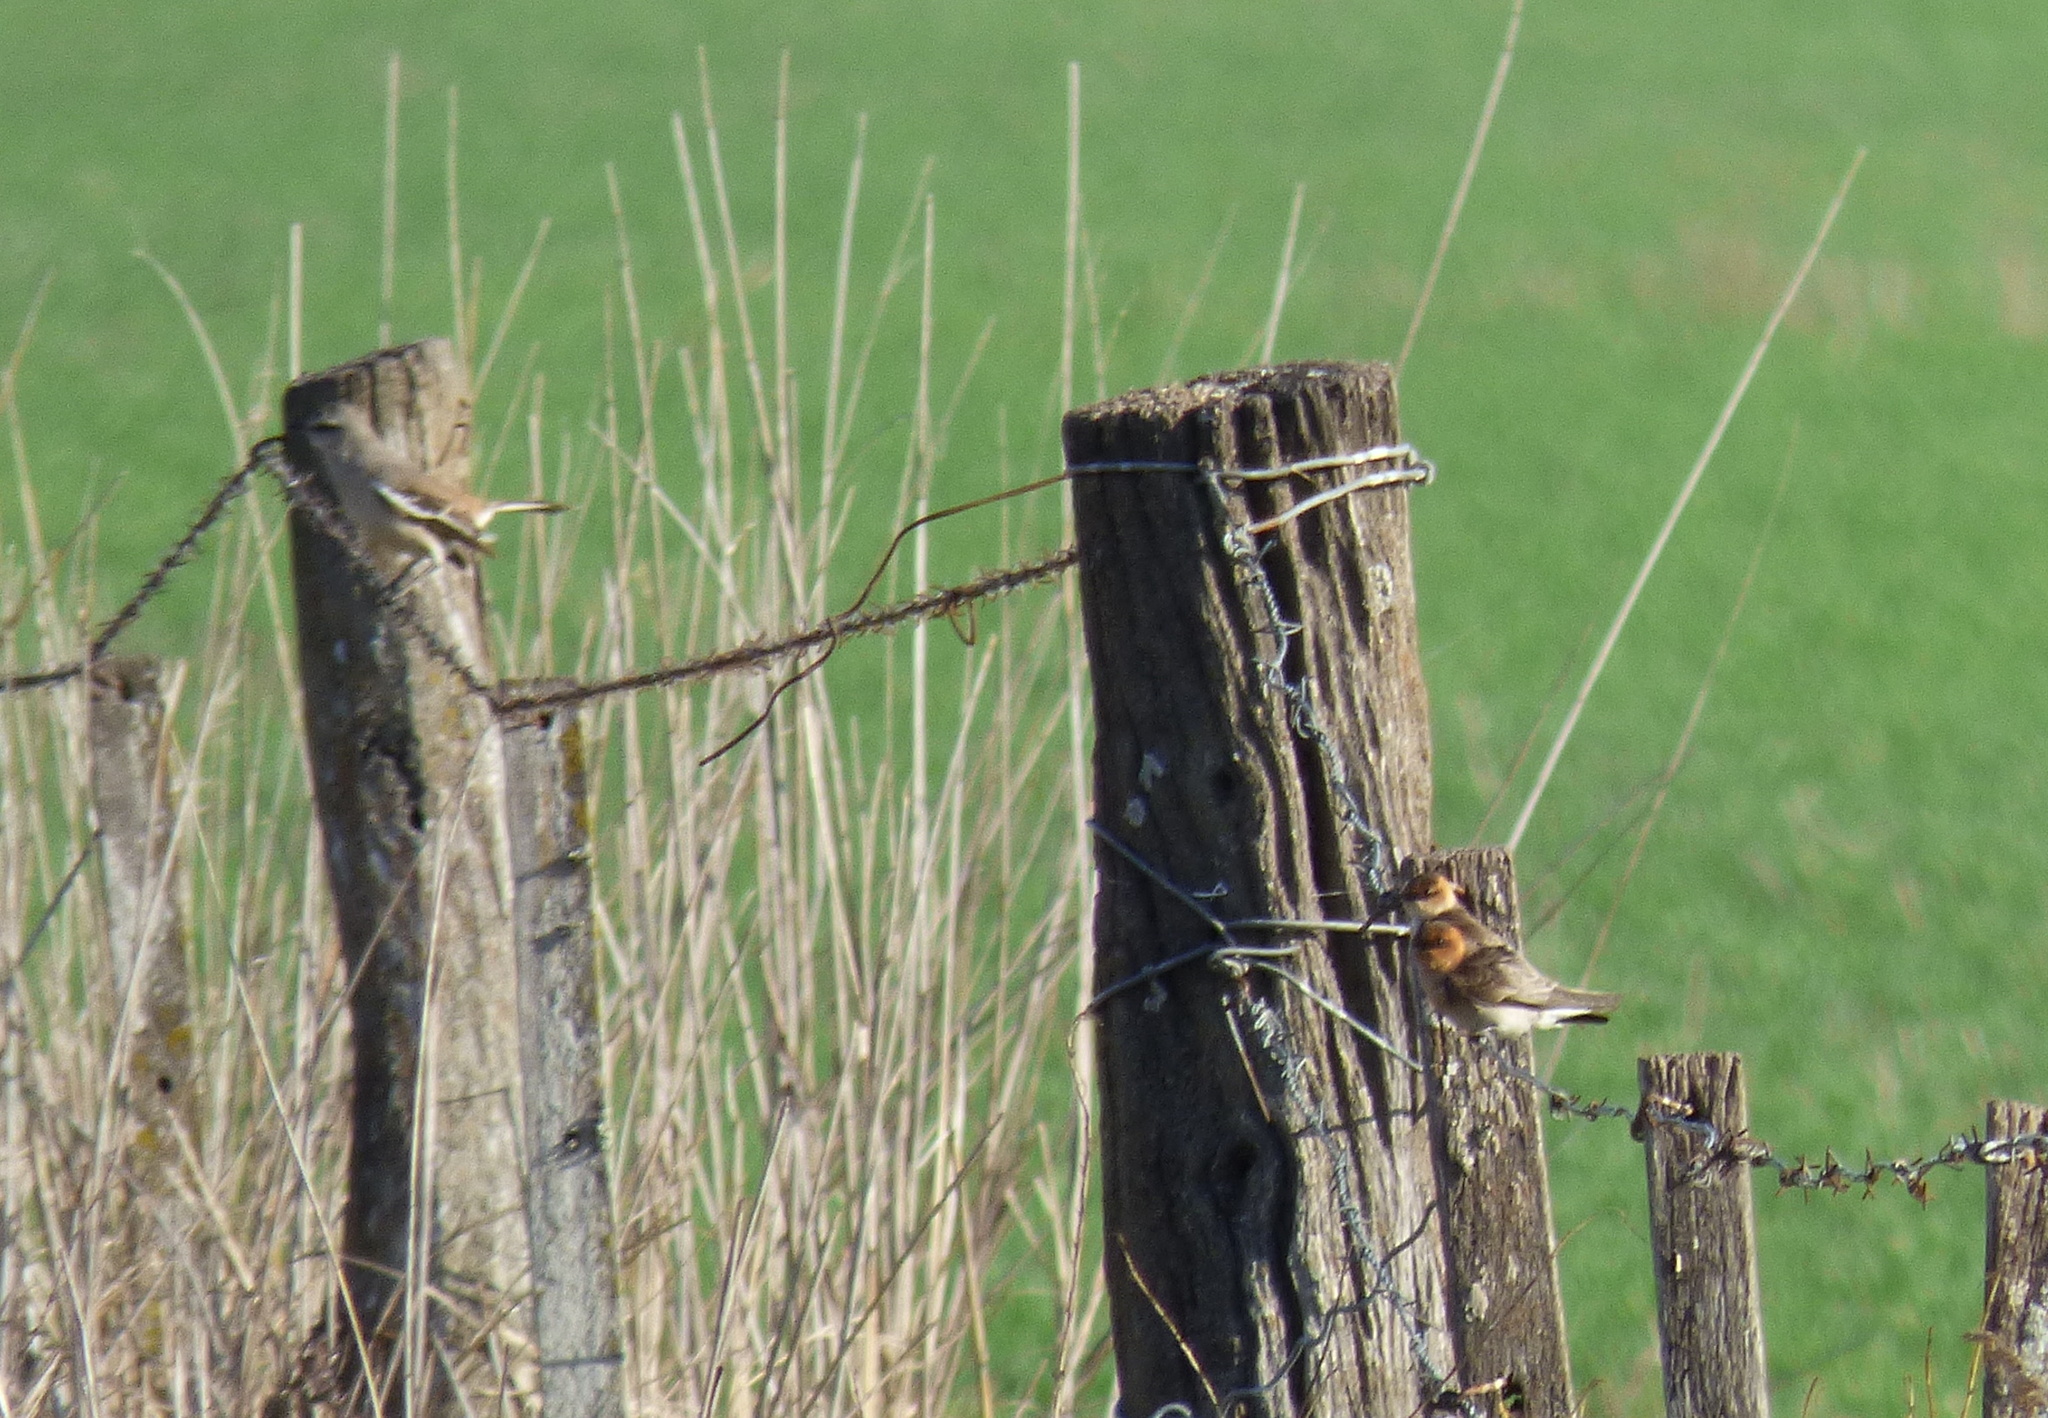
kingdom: Animalia
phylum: Chordata
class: Aves
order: Passeriformes
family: Hirundinidae
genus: Alopochelidon
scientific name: Alopochelidon fucata
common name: Tawny-headed swallow
